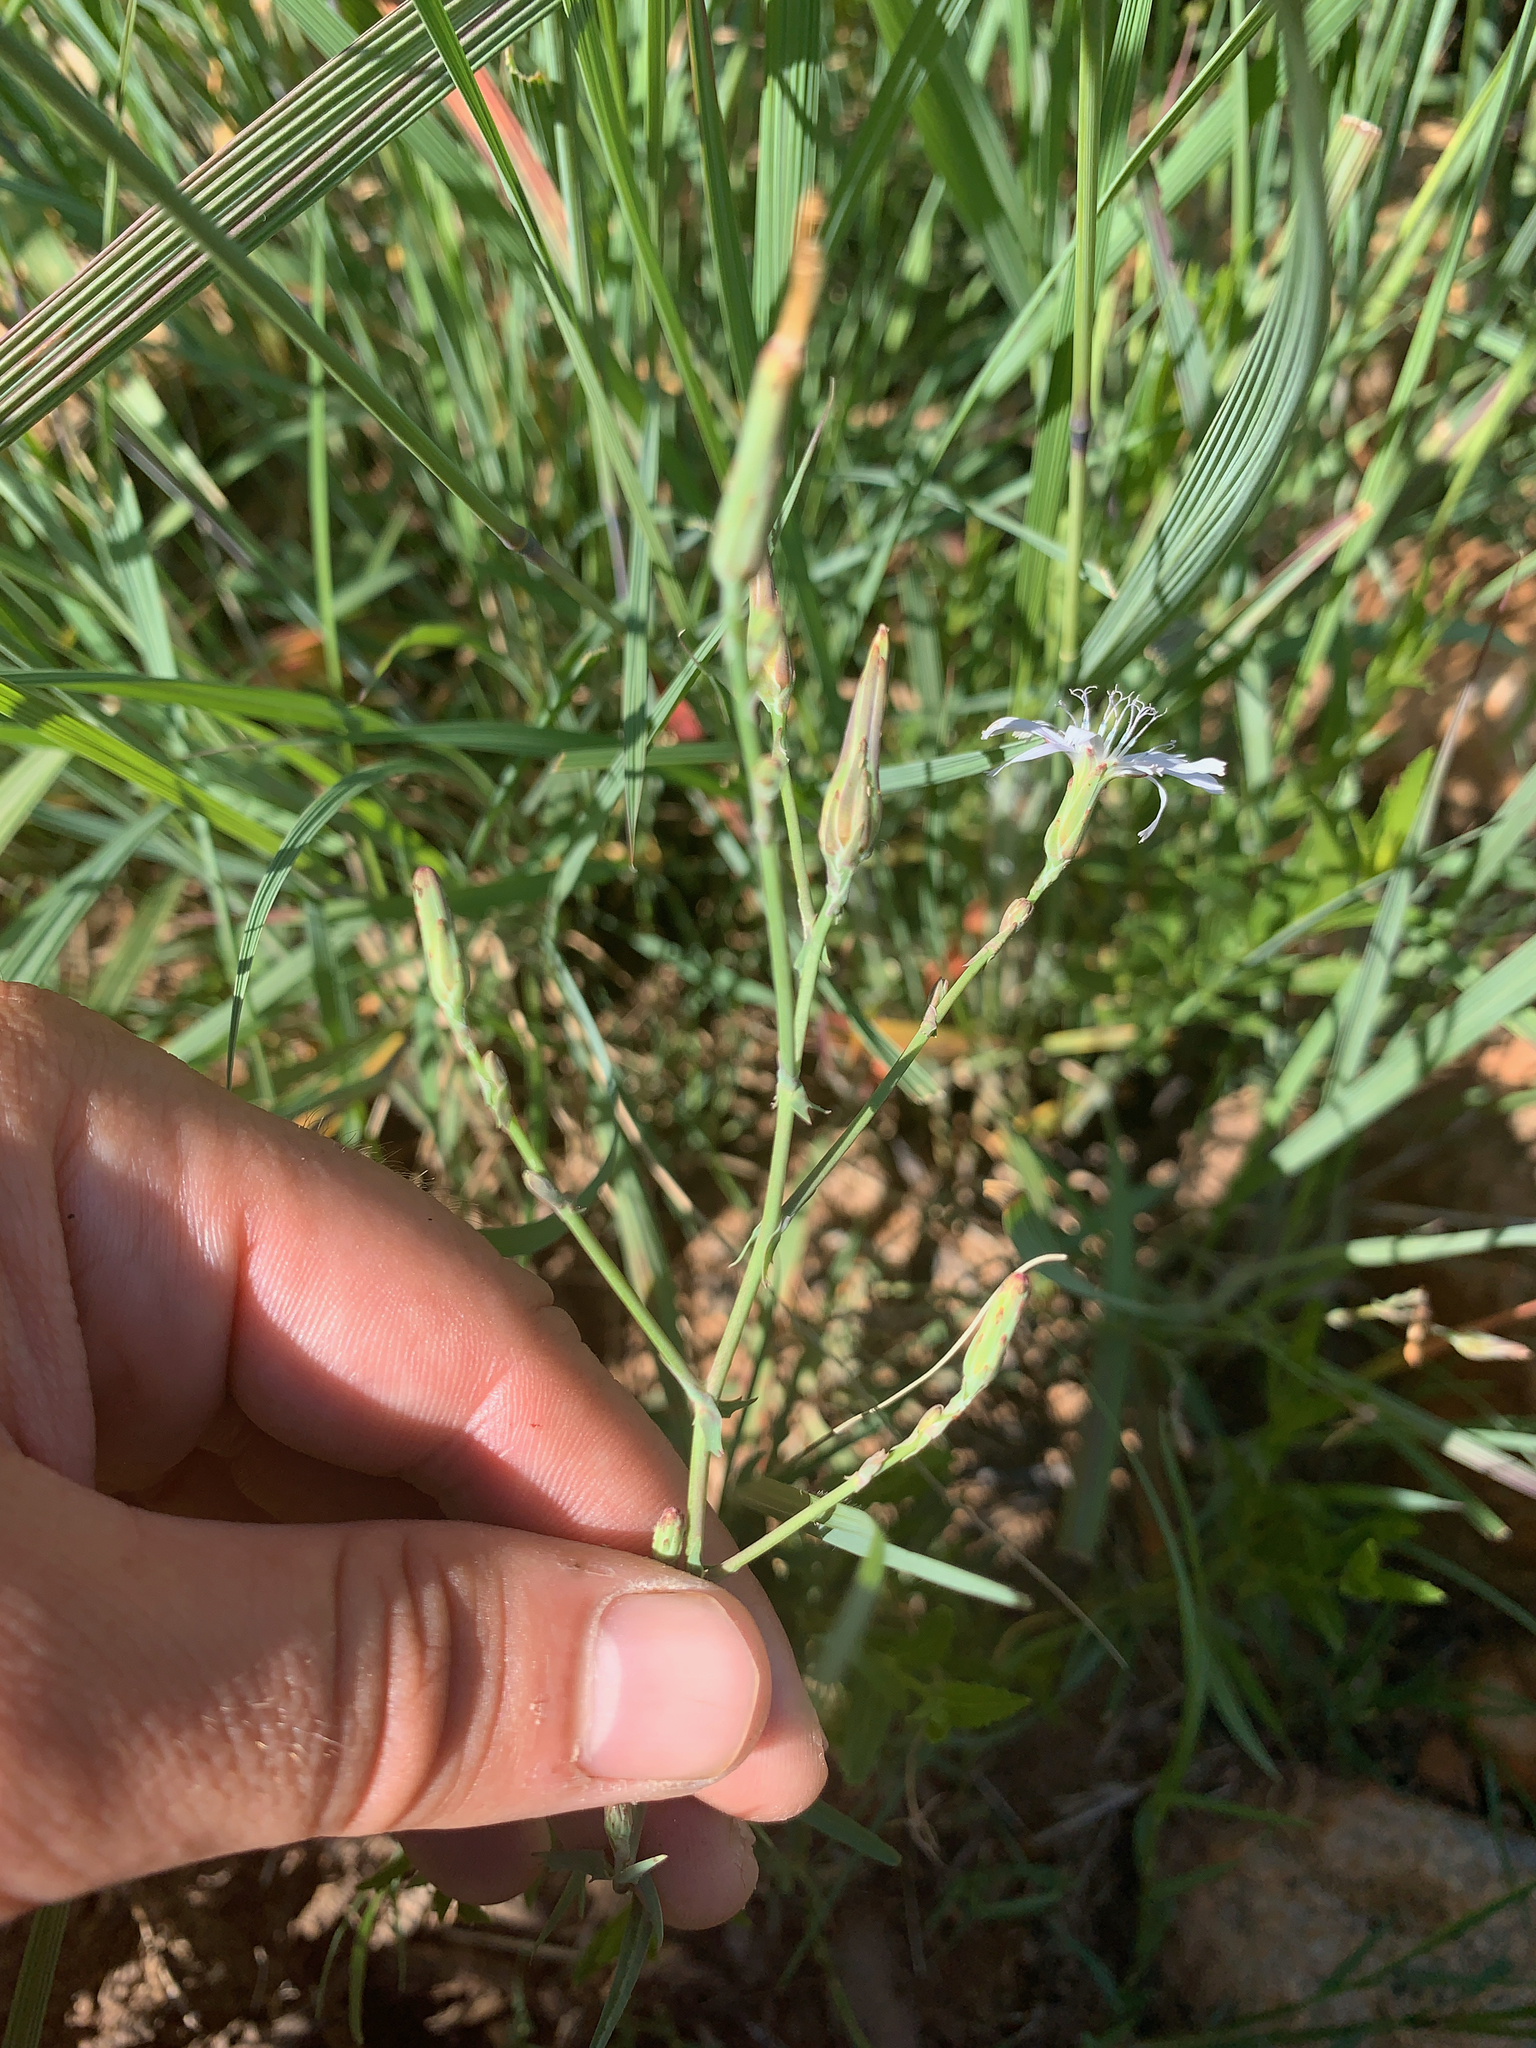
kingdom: Plantae
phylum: Tracheophyta
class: Magnoliopsida
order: Asterales
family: Asteraceae
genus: Lactuca
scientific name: Lactuca inermis
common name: Wild lettuce
